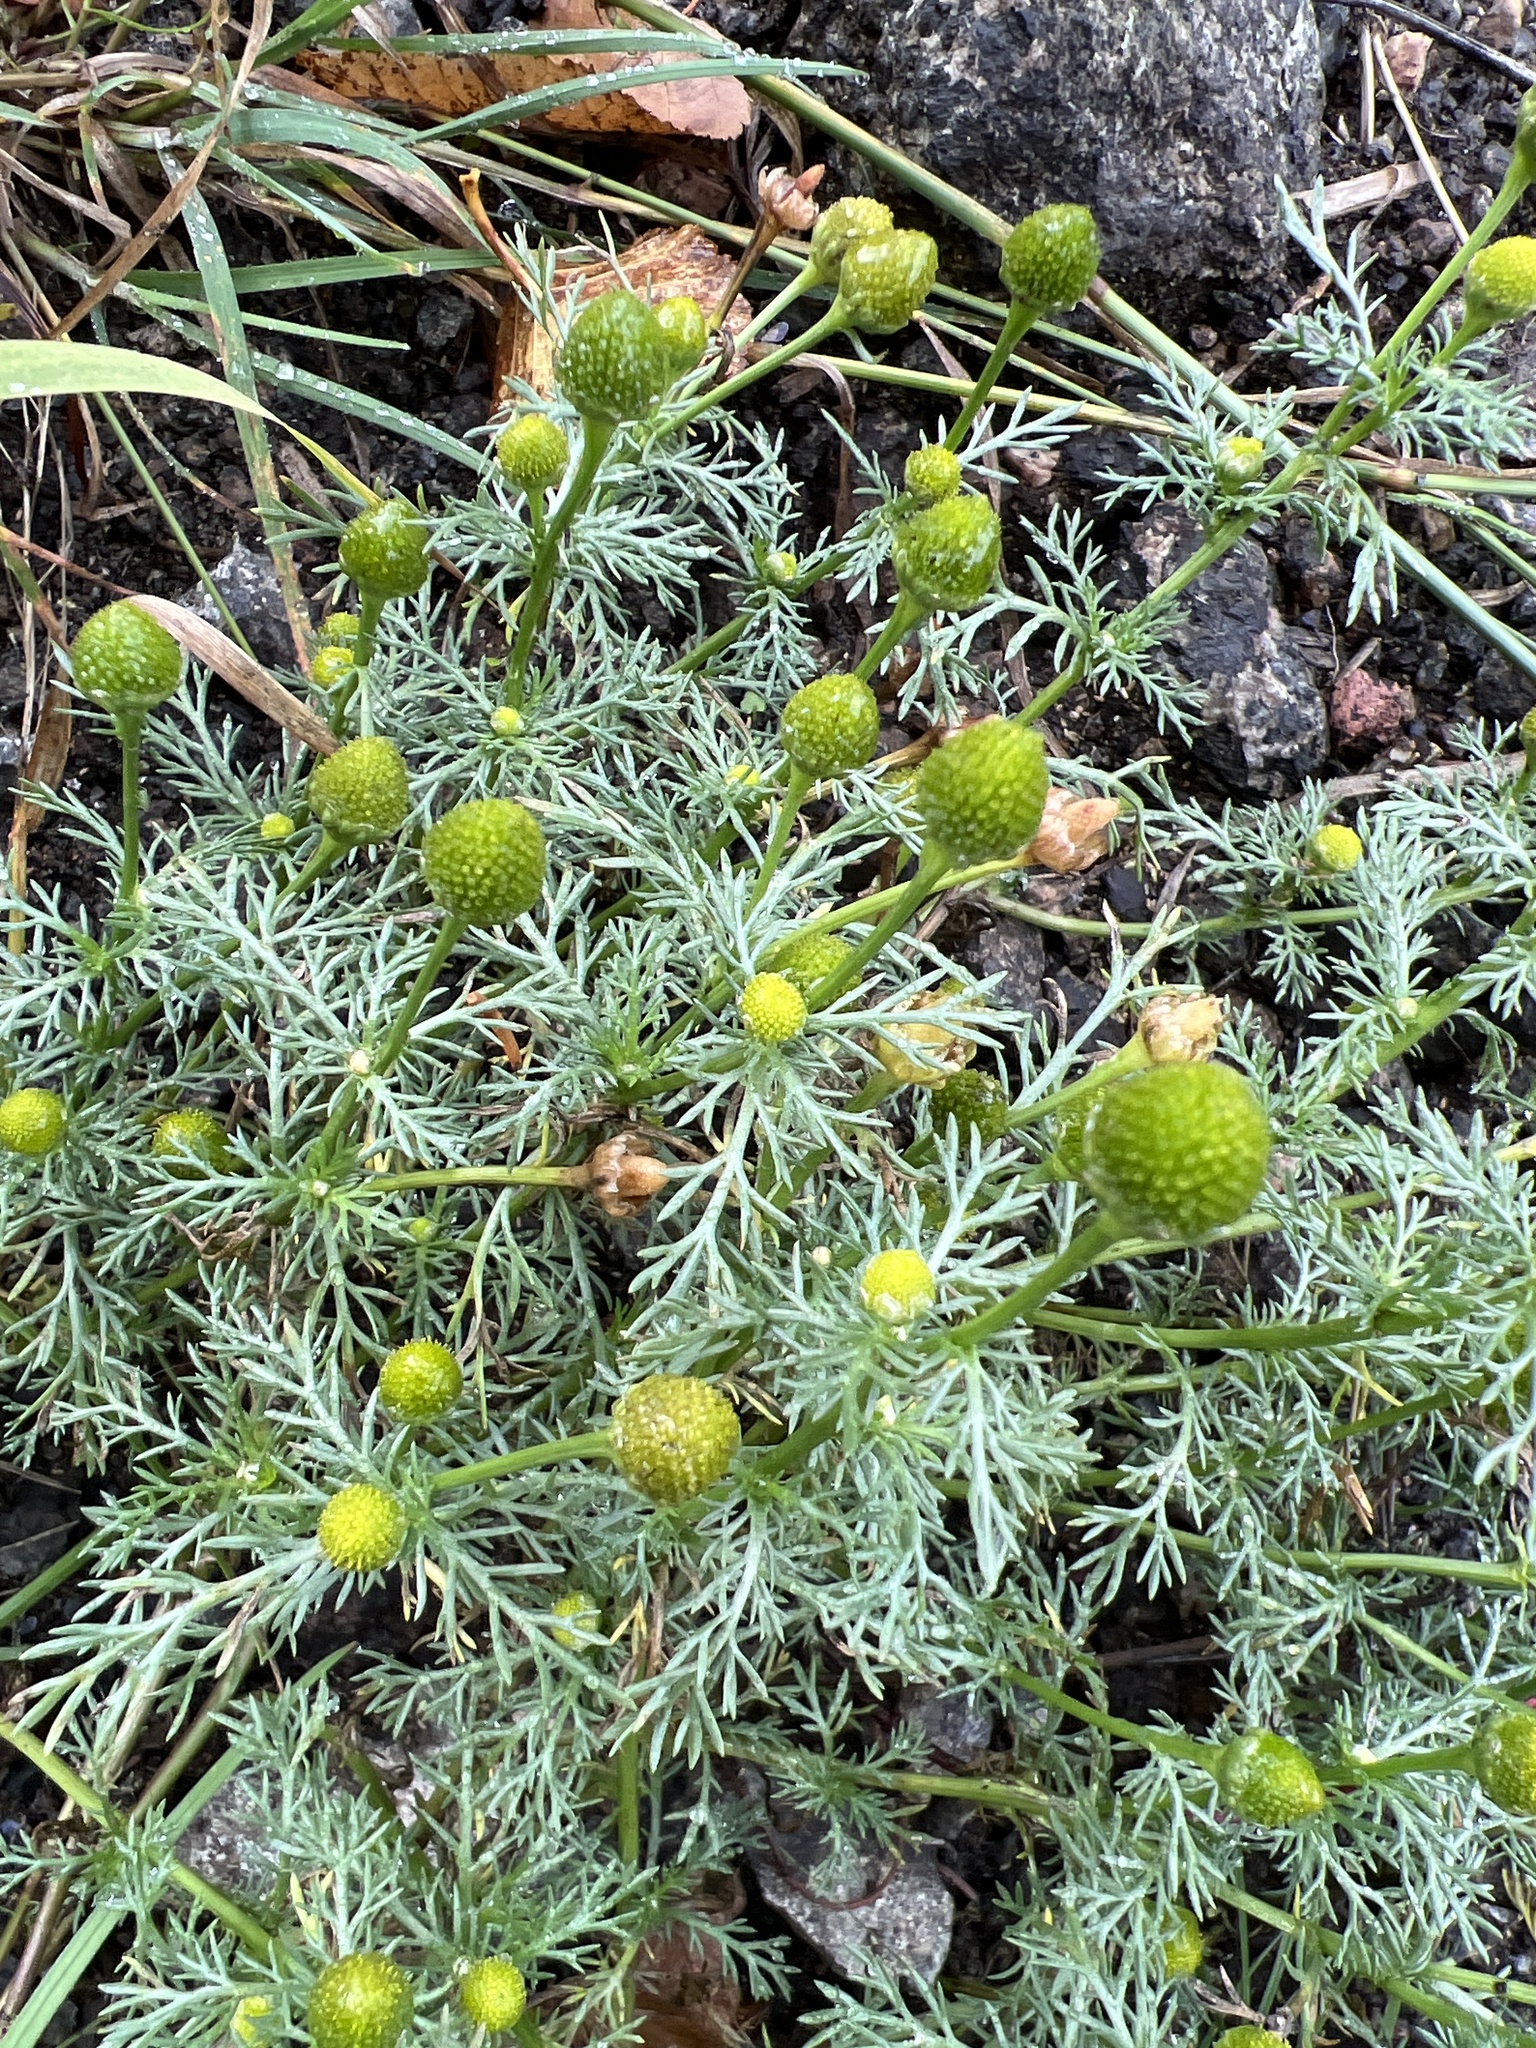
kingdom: Plantae
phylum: Tracheophyta
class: Magnoliopsida
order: Asterales
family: Asteraceae
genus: Matricaria
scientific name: Matricaria discoidea
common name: Disc mayweed
